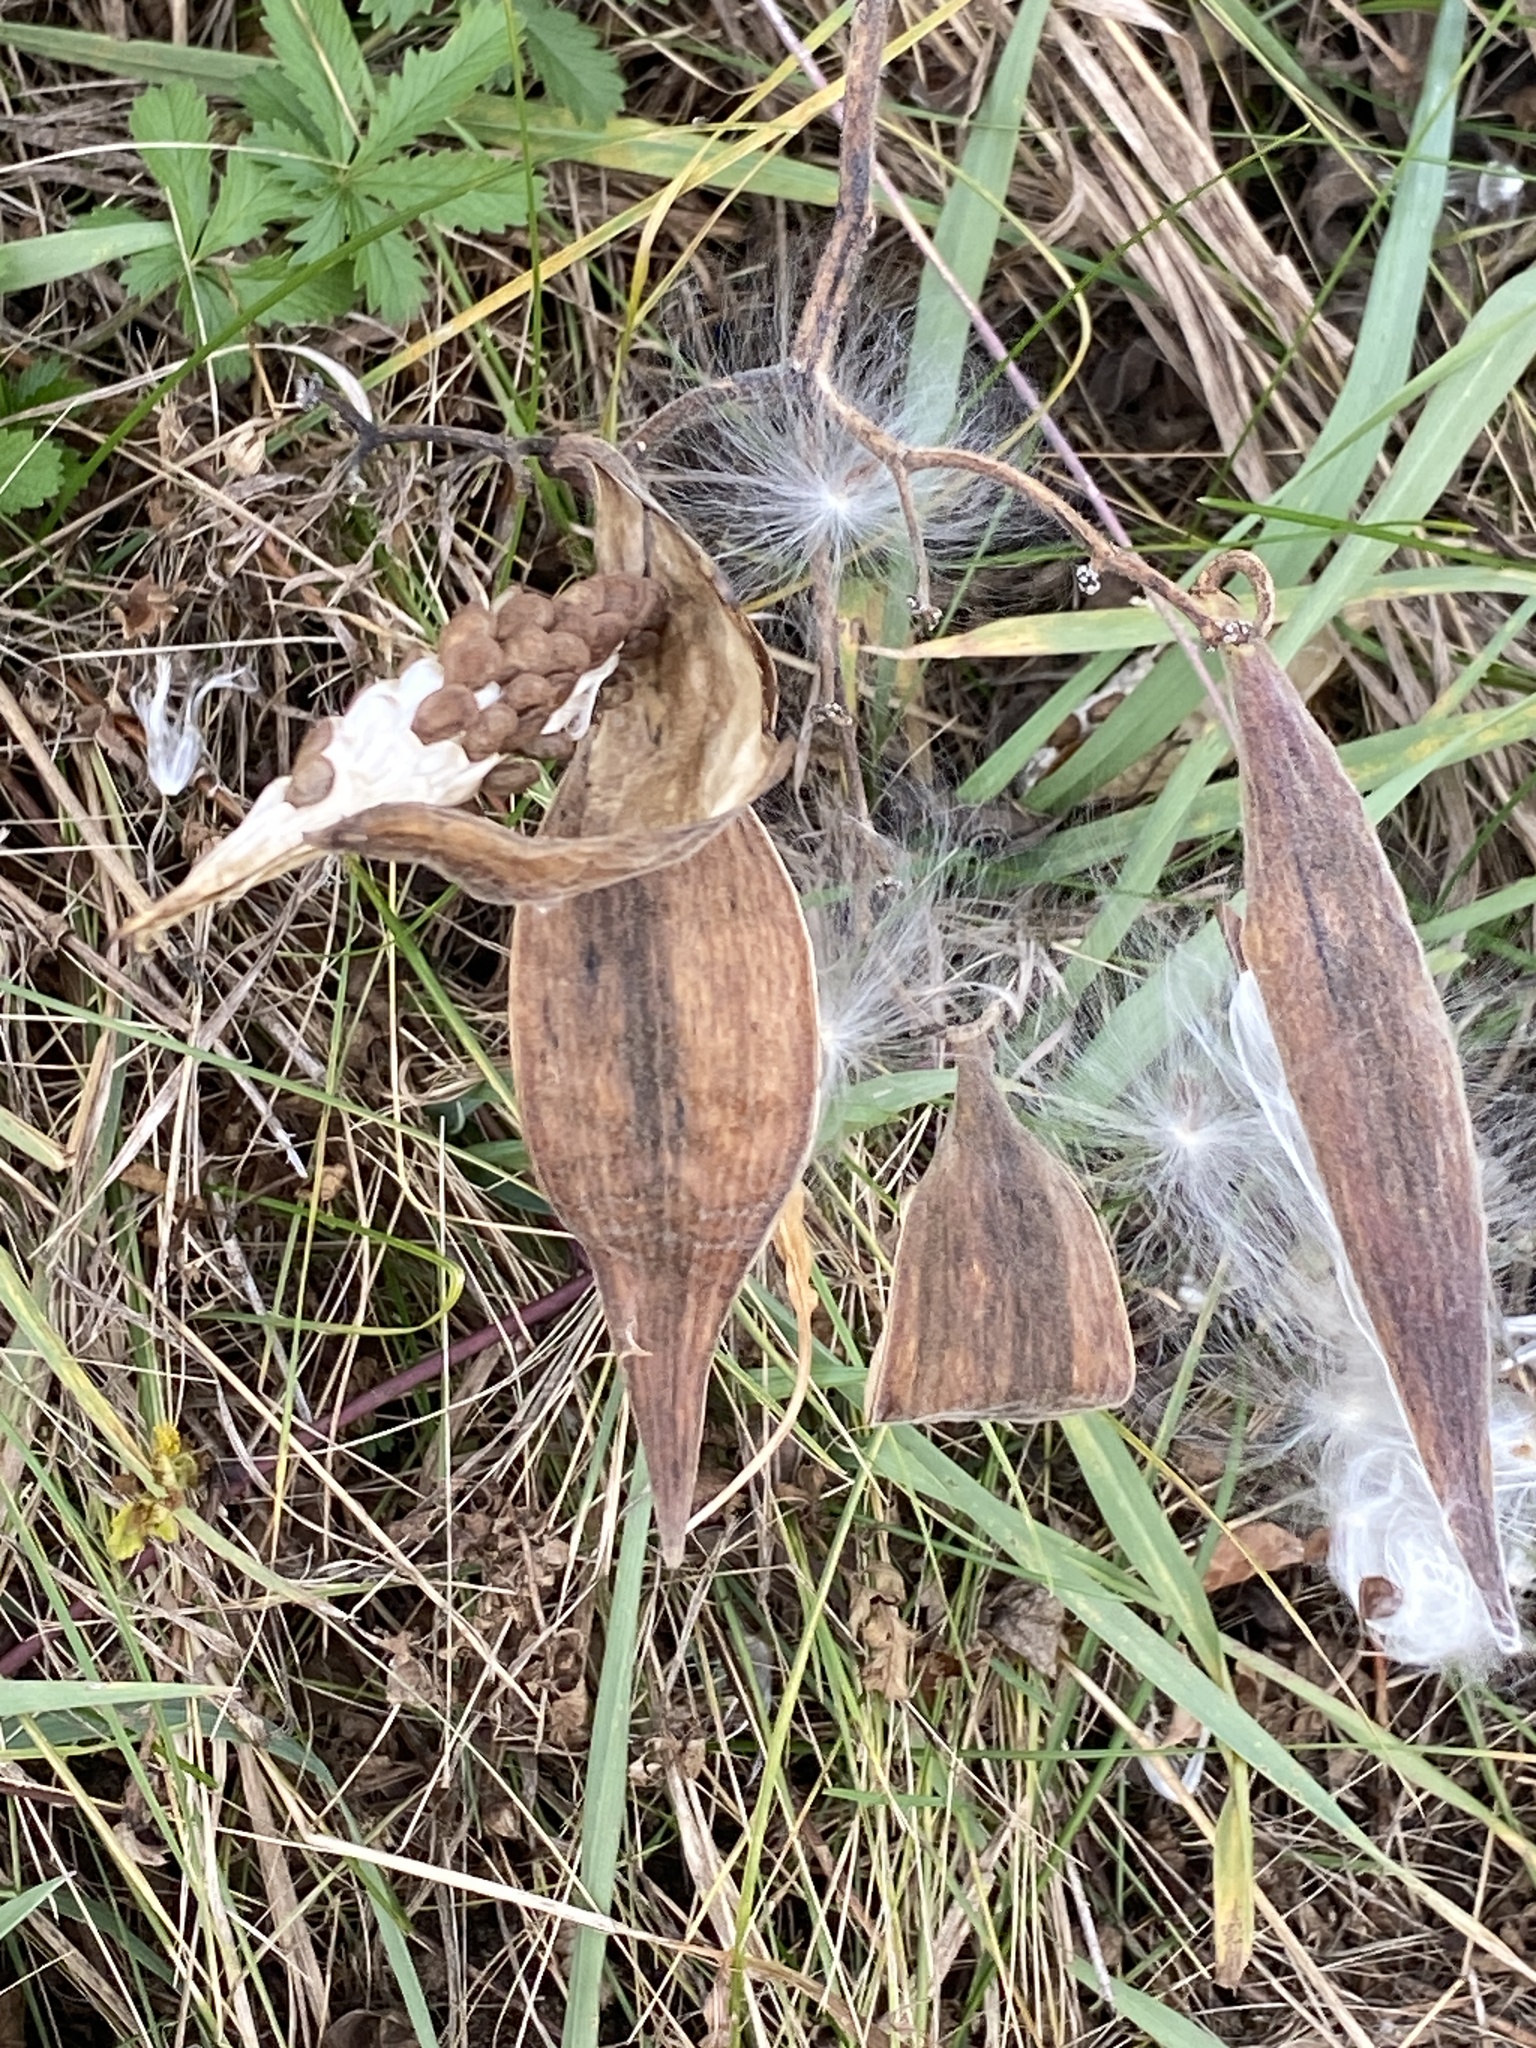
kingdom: Plantae
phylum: Tracheophyta
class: Magnoliopsida
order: Gentianales
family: Apocynaceae
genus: Asclepias
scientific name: Asclepias tuberosa
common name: Butterfly milkweed
